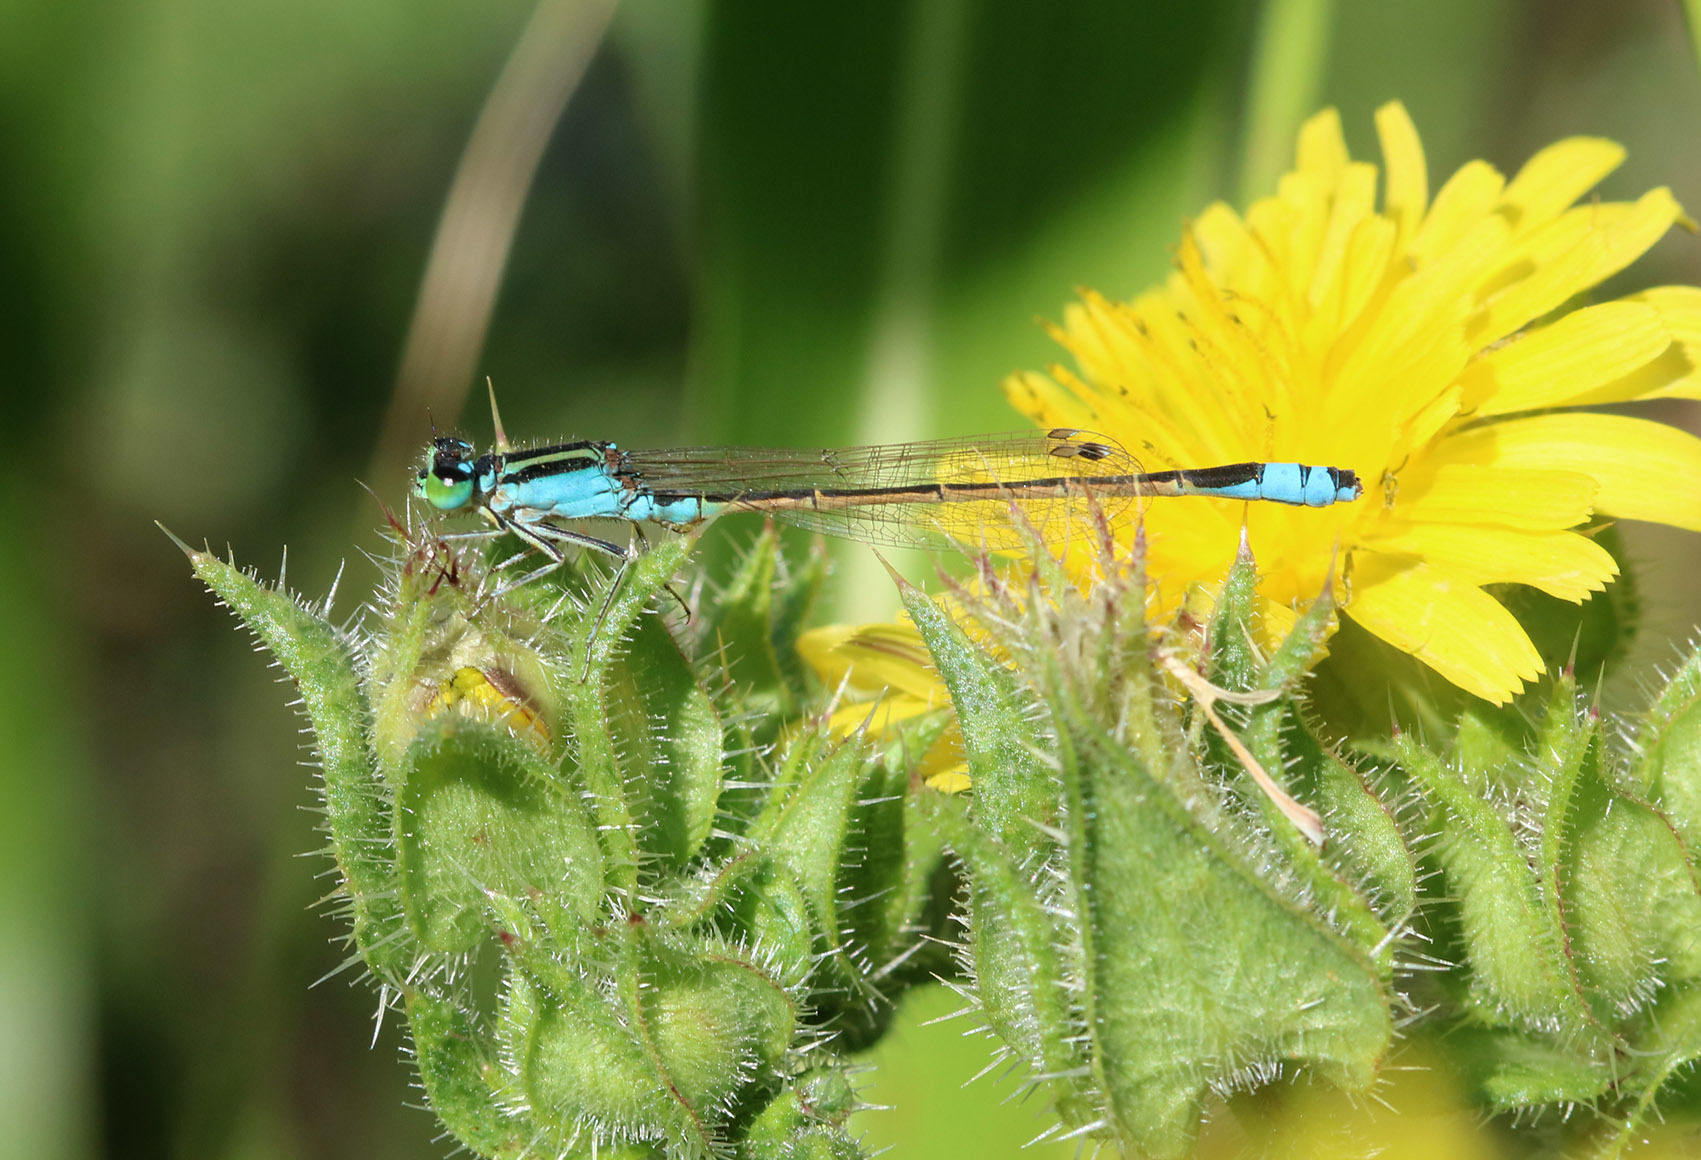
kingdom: Animalia
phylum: Arthropoda
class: Insecta
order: Odonata
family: Coenagrionidae
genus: Ischnura
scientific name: Ischnura fluviatilis
